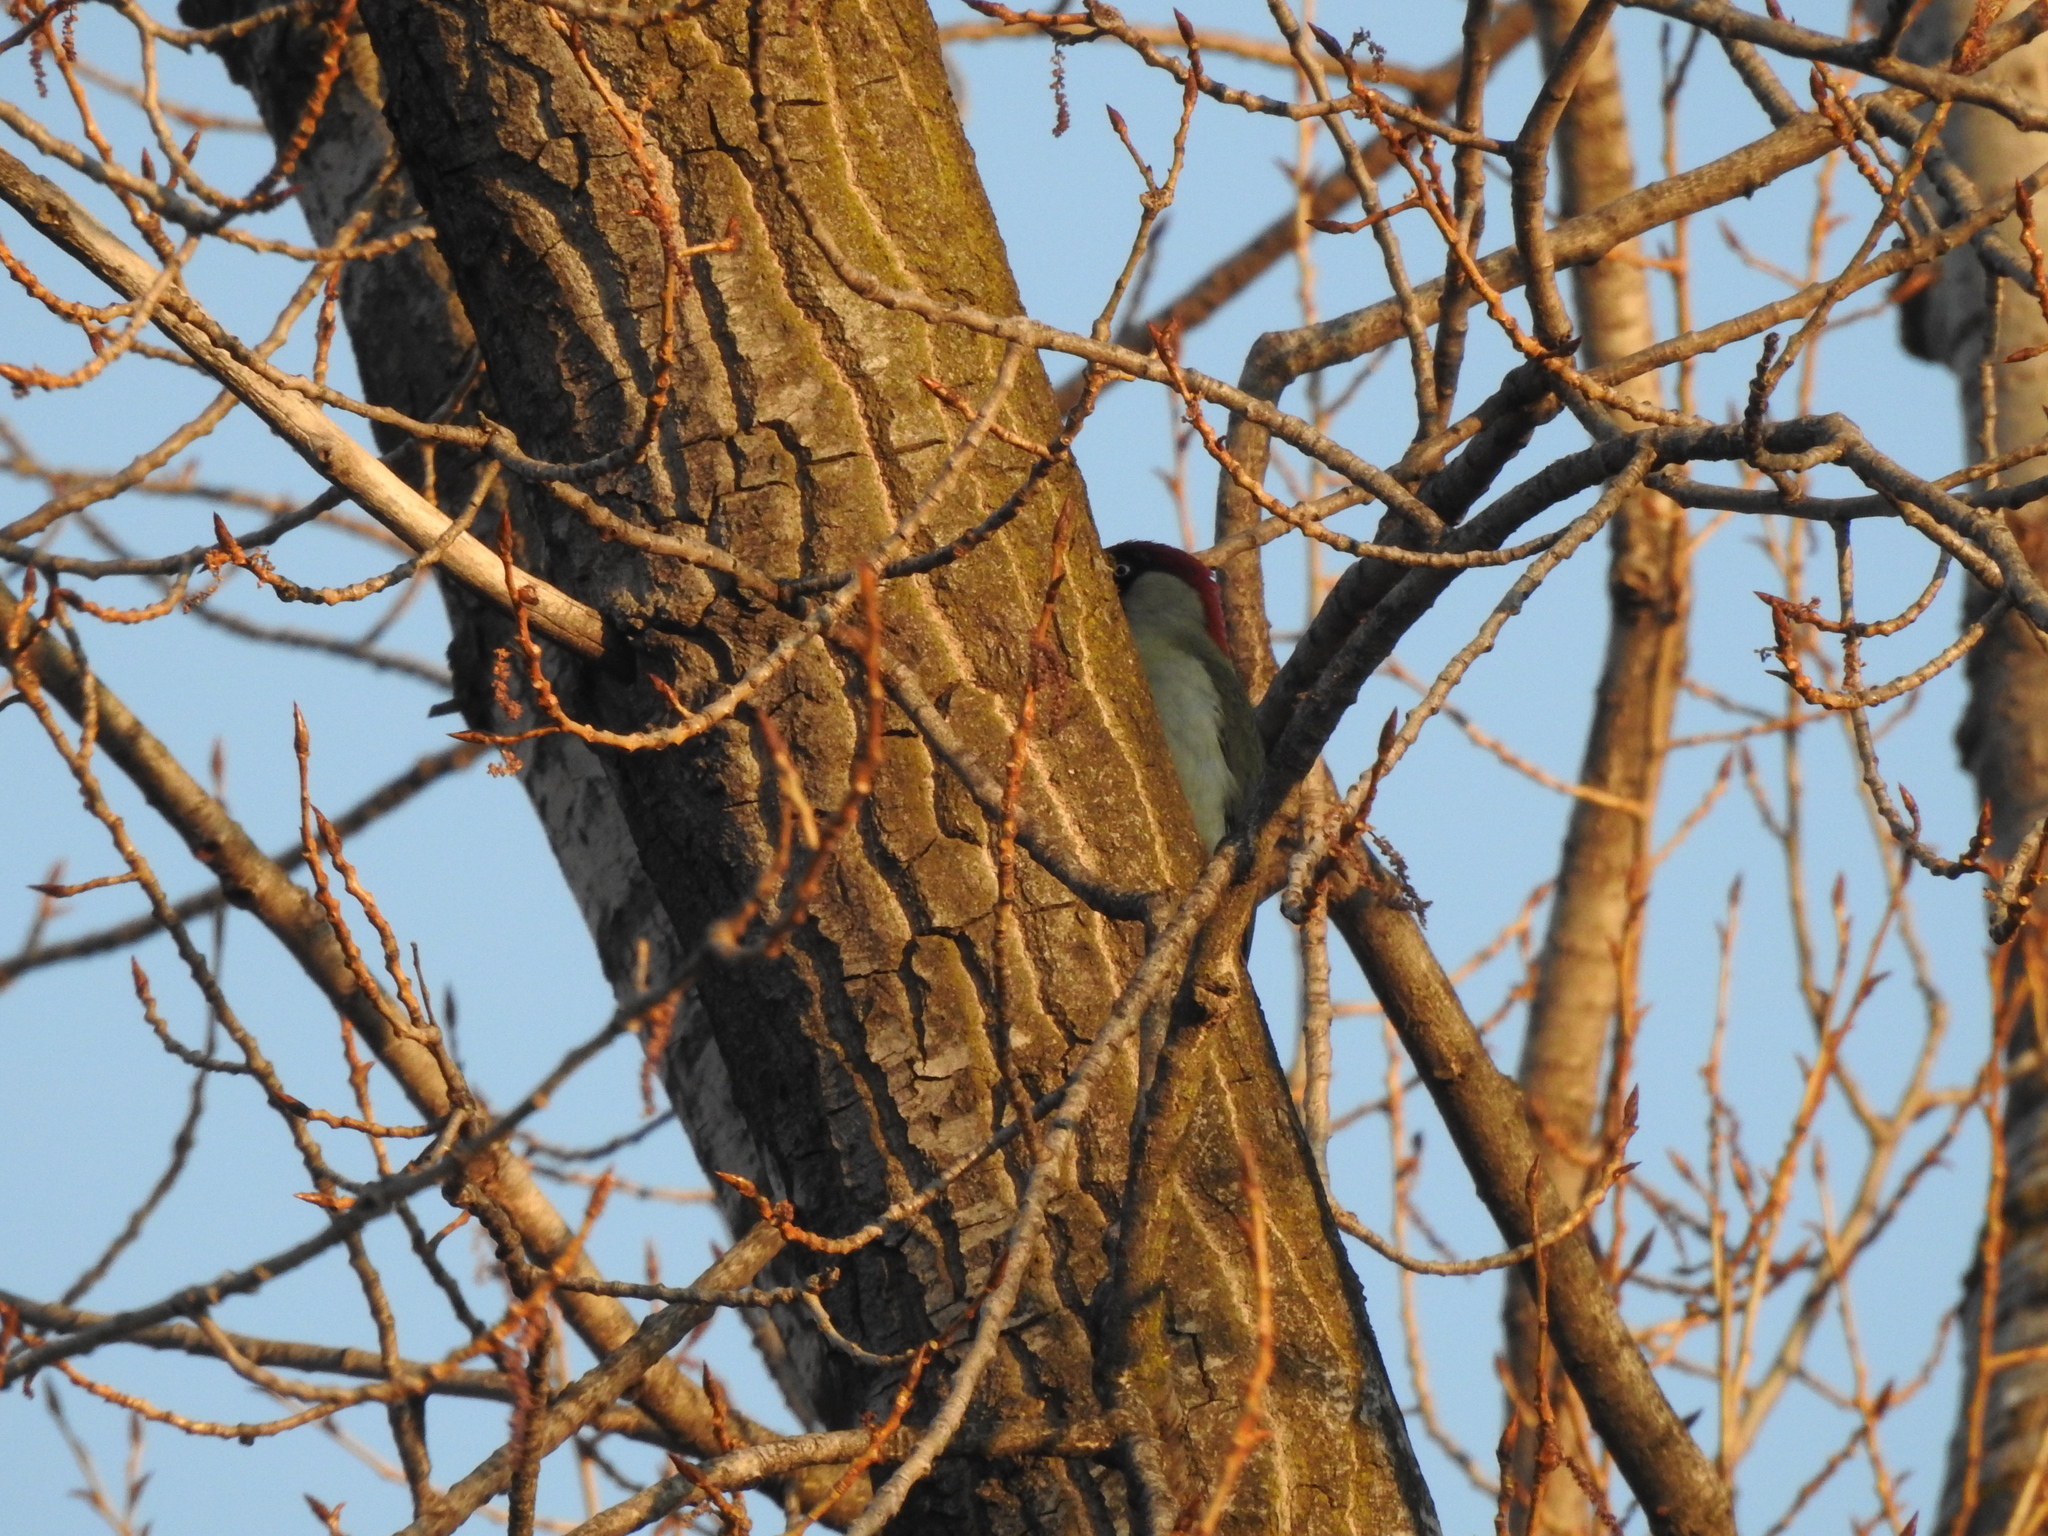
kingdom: Animalia
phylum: Chordata
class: Aves
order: Piciformes
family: Picidae
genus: Picus
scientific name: Picus viridis
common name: European green woodpecker
